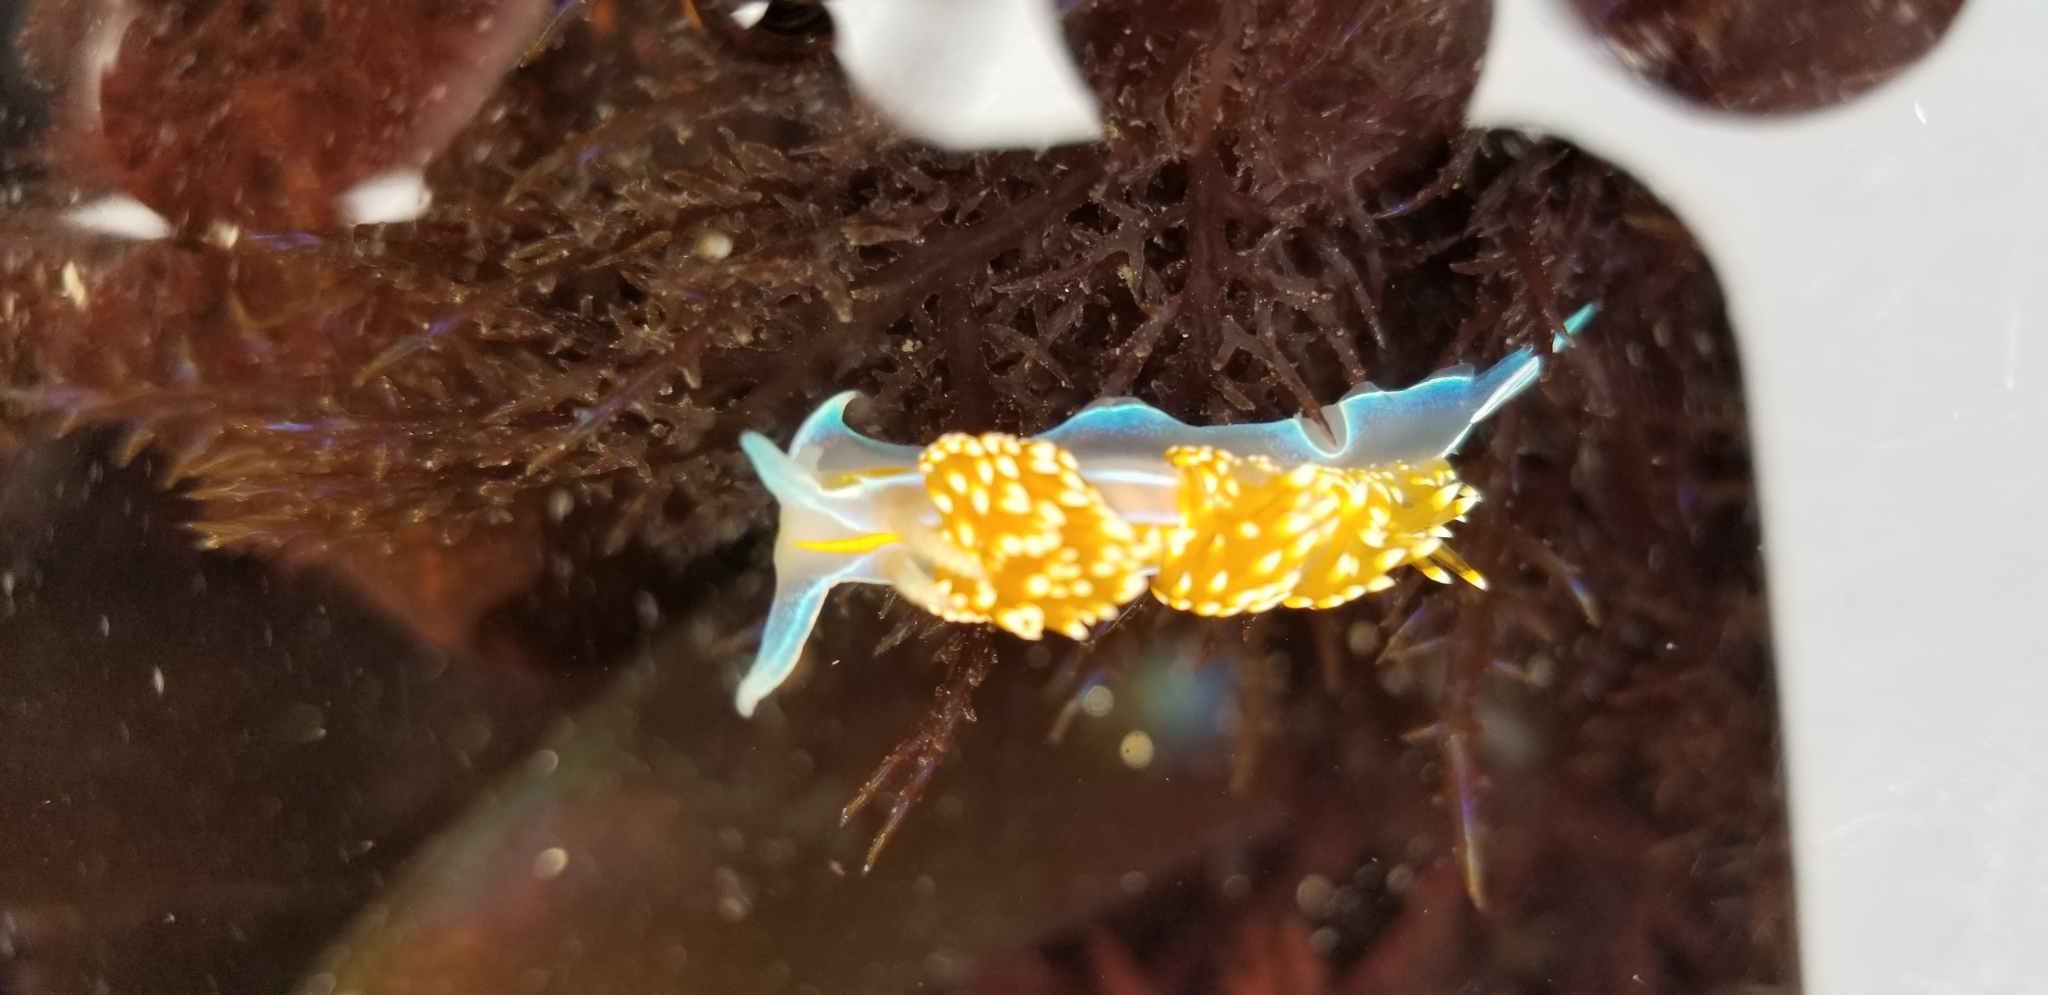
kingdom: Animalia
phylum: Mollusca
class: Gastropoda
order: Nudibranchia
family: Myrrhinidae
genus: Hermissenda
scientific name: Hermissenda opalescens
